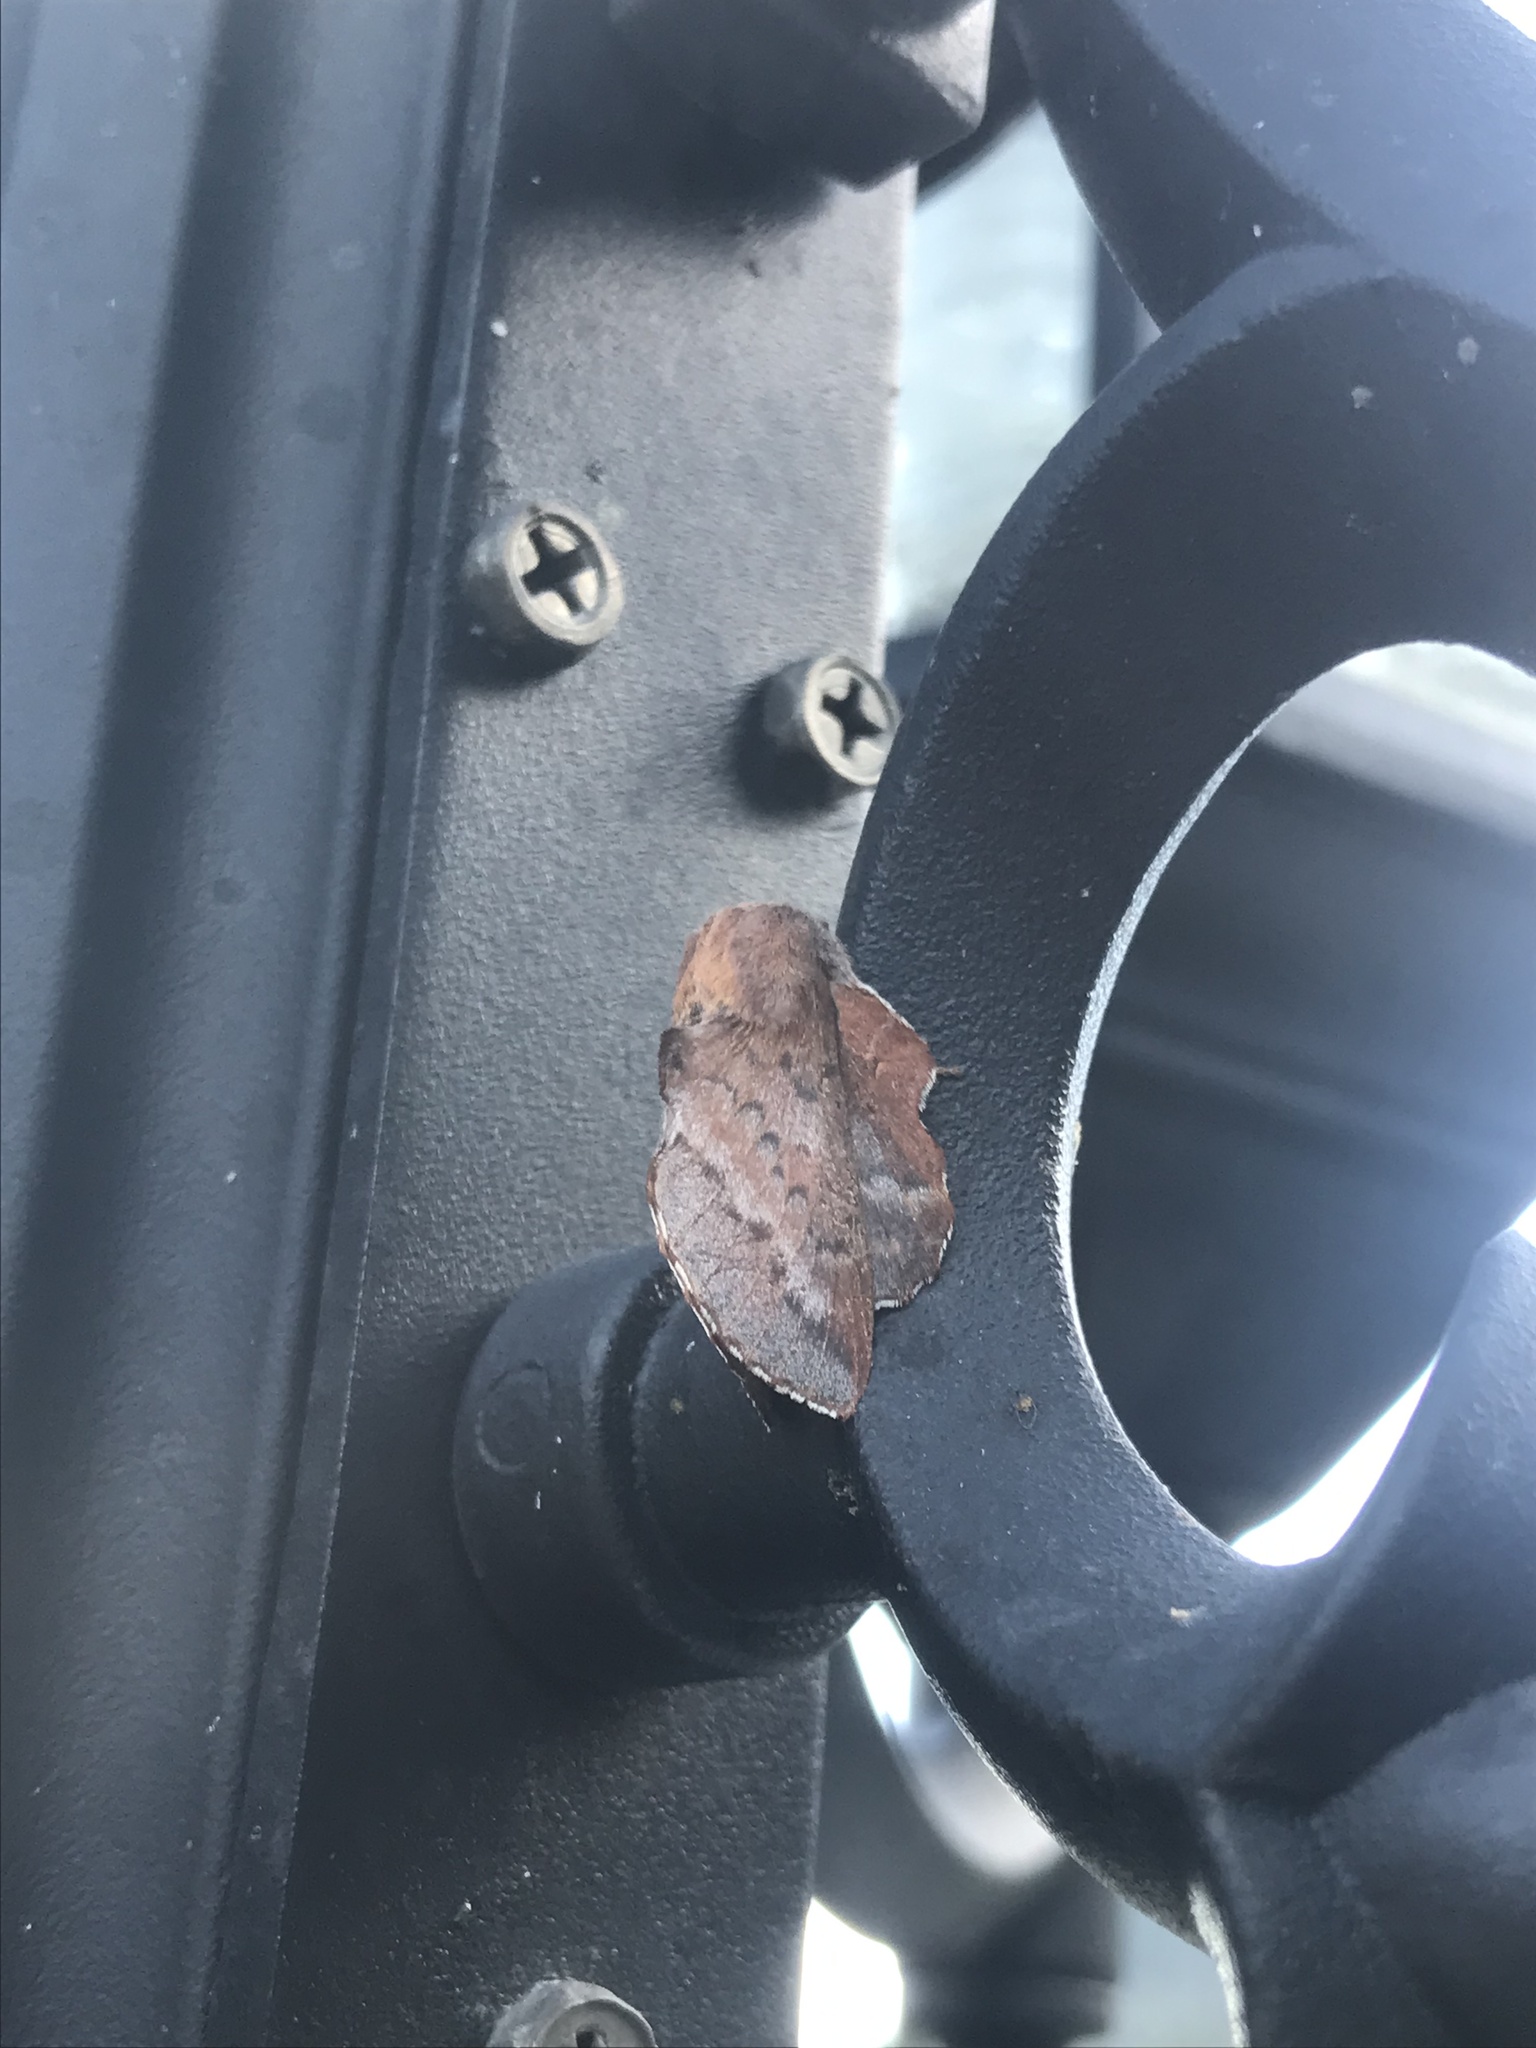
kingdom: Animalia
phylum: Arthropoda
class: Insecta
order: Lepidoptera
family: Lasiocampidae
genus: Phyllodesma
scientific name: Phyllodesma americana
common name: American lappet moth
